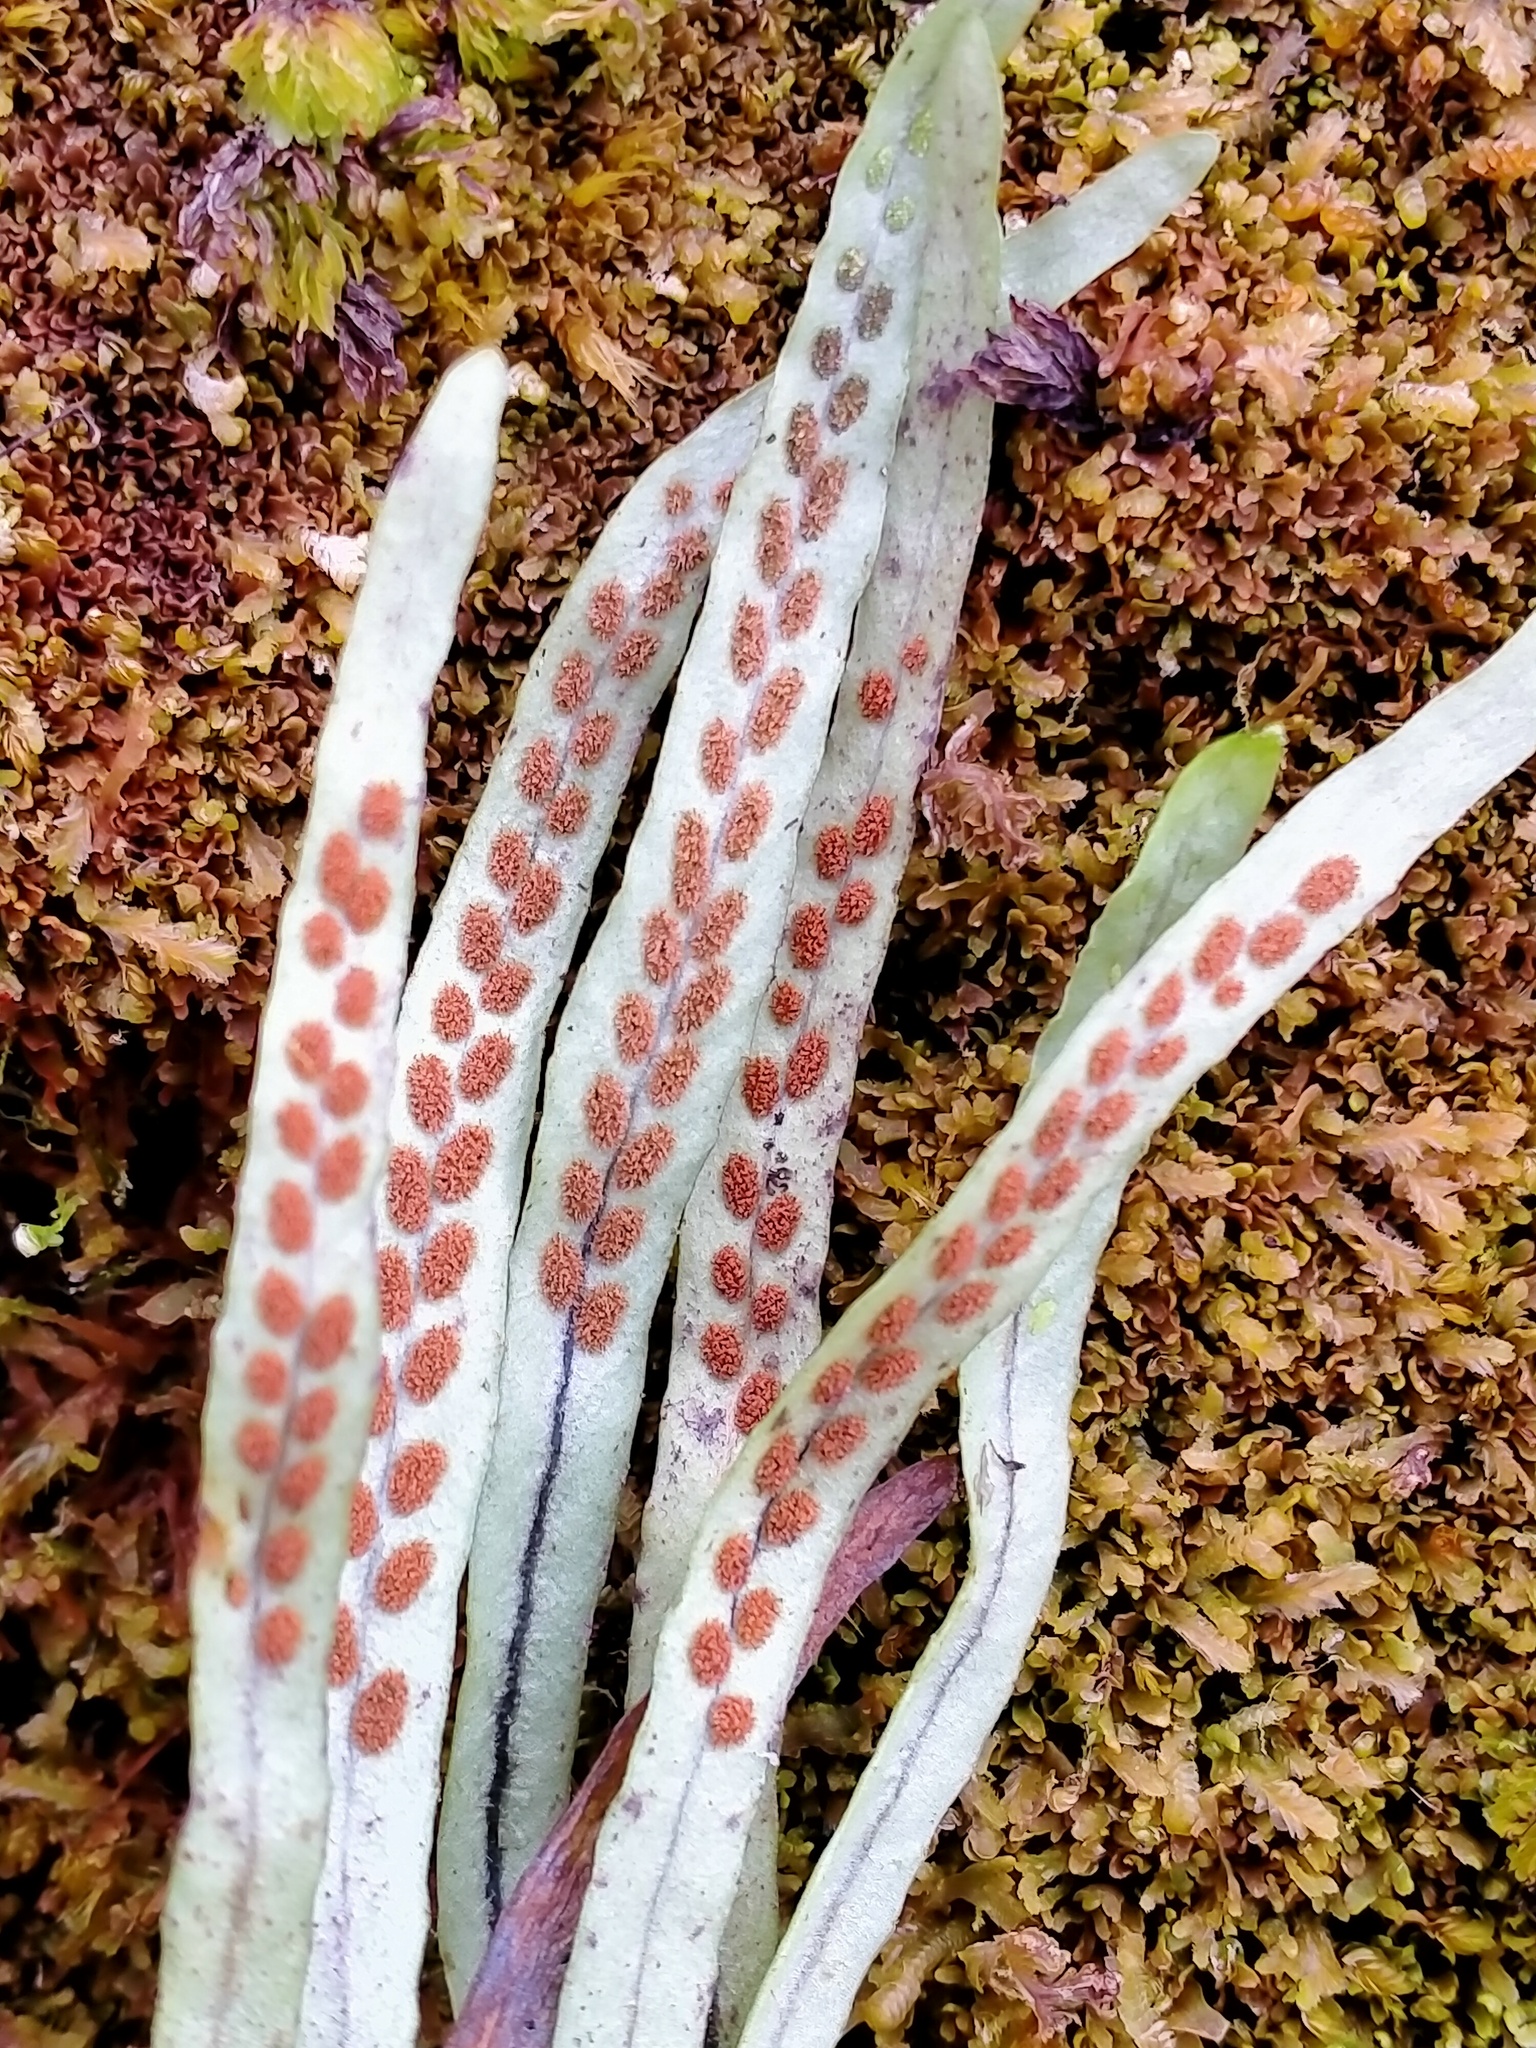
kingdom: Plantae
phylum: Tracheophyta
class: Polypodiopsida
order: Polypodiales
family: Polypodiaceae
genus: Notogrammitis
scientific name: Notogrammitis angustifolia
